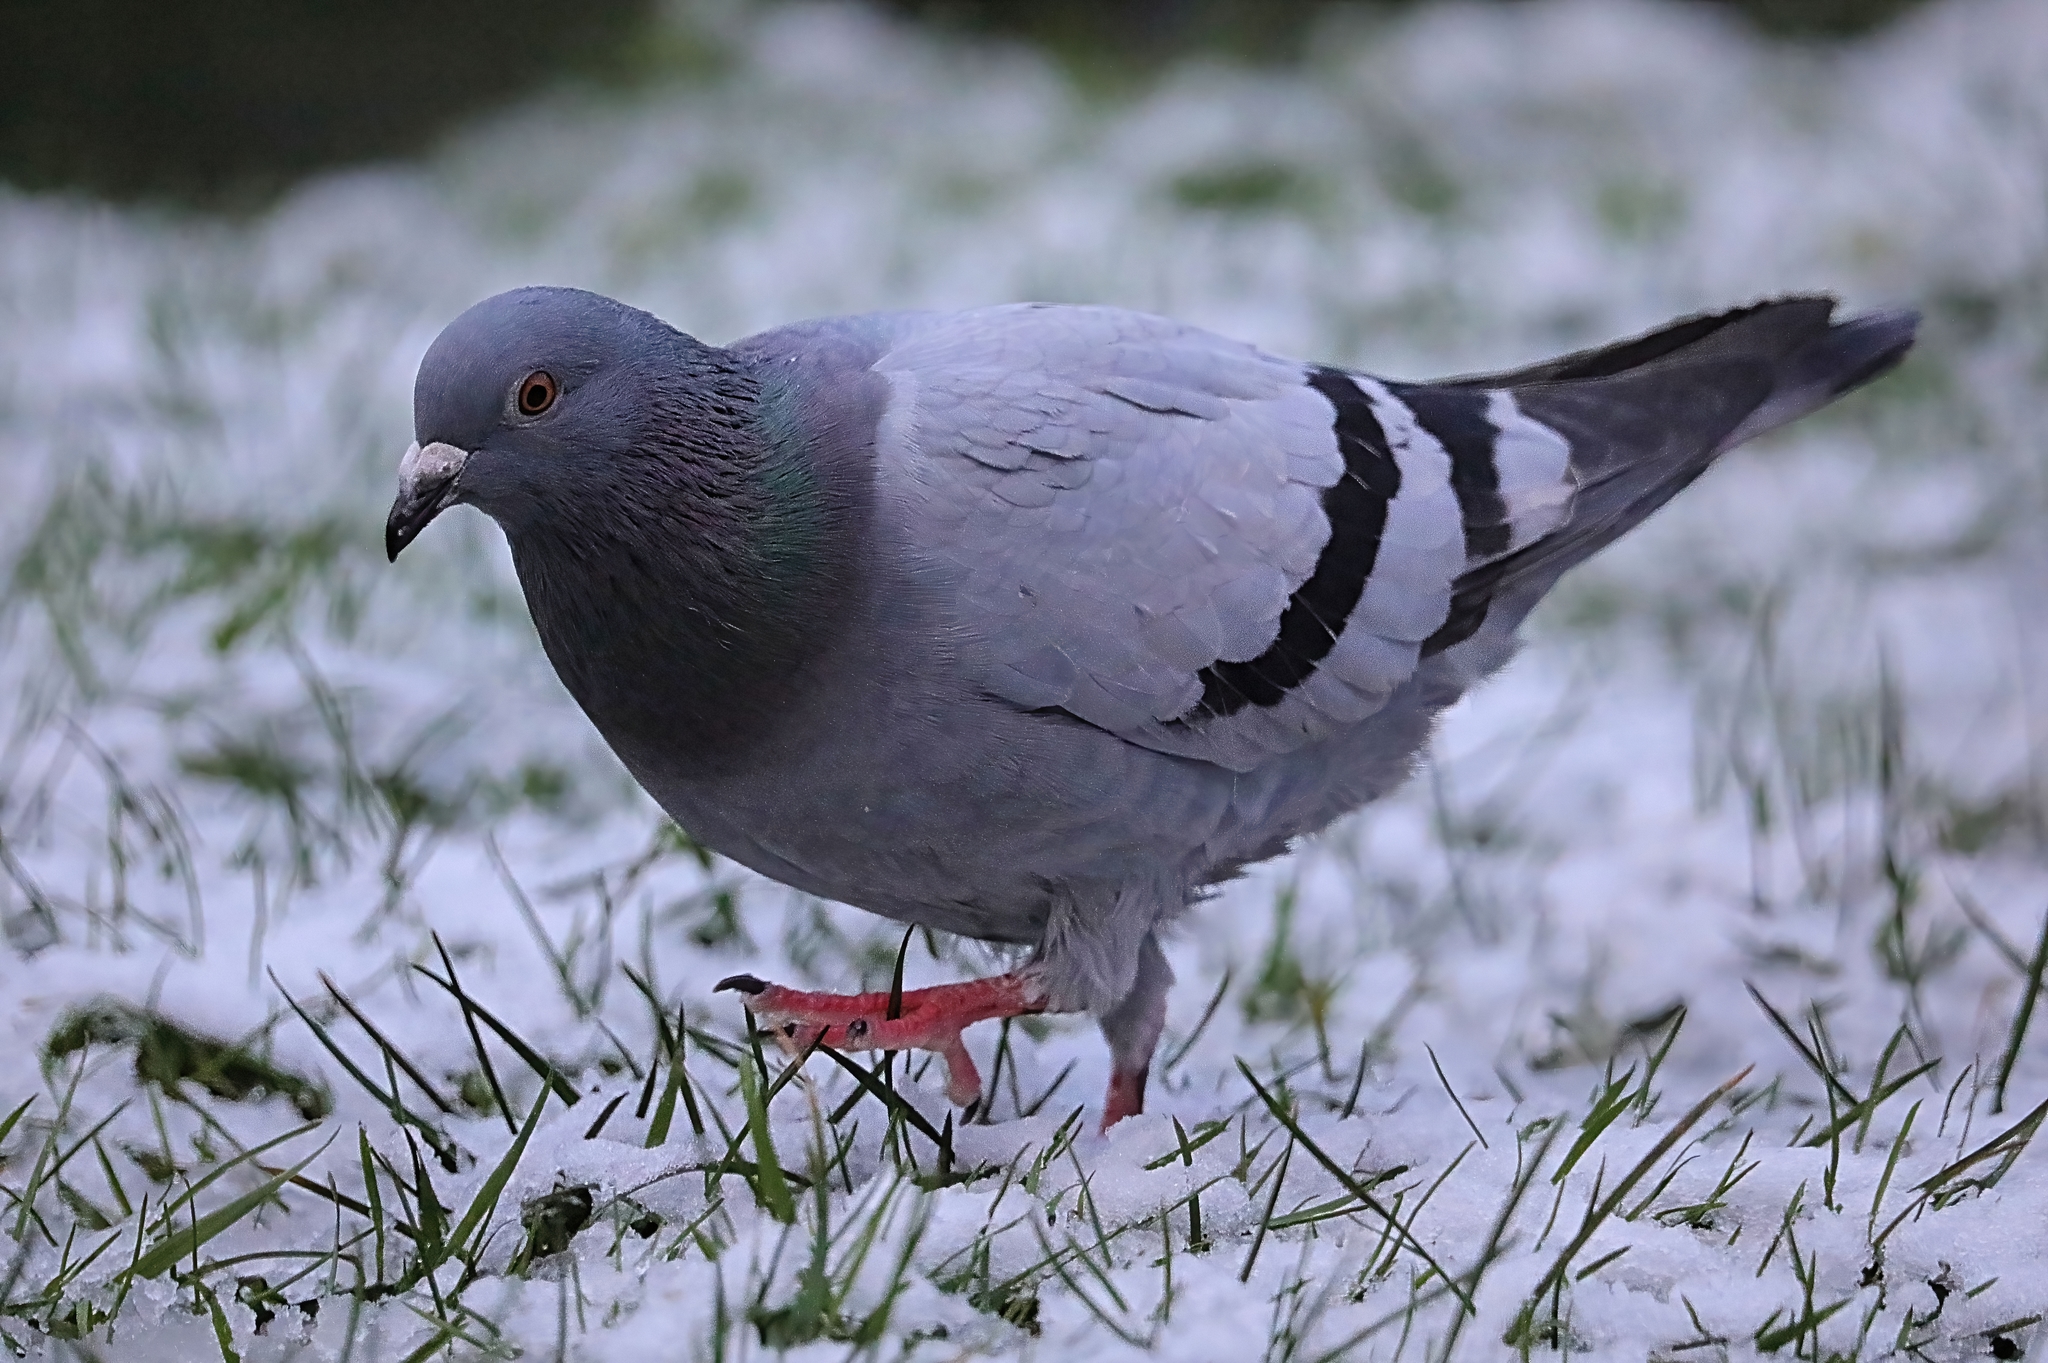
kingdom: Animalia
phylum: Chordata
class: Aves
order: Columbiformes
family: Columbidae
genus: Columba
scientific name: Columba livia
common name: Rock pigeon
